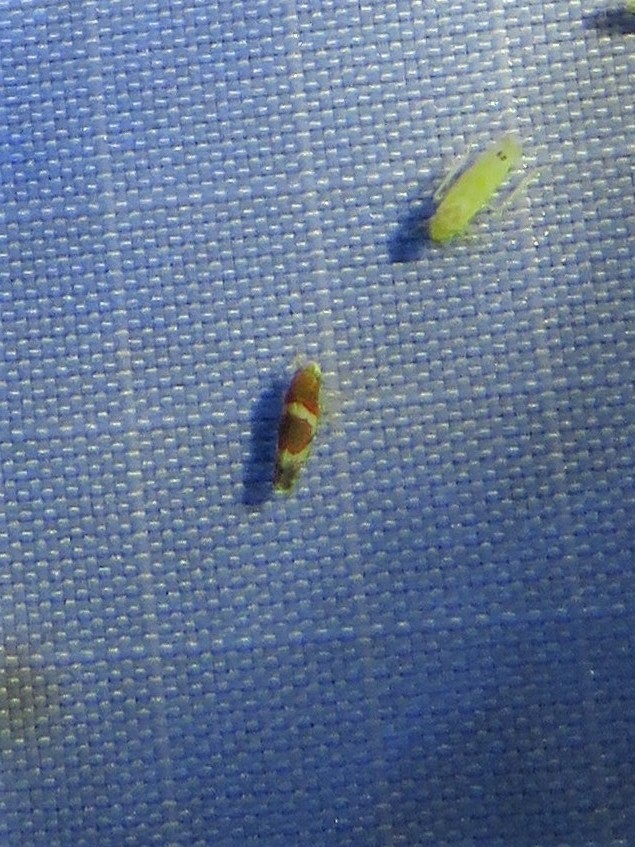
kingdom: Animalia
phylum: Arthropoda
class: Insecta
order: Hemiptera
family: Cicadellidae
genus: Erythroneura
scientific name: Erythroneura vitis
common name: Grapevine leafhopper
